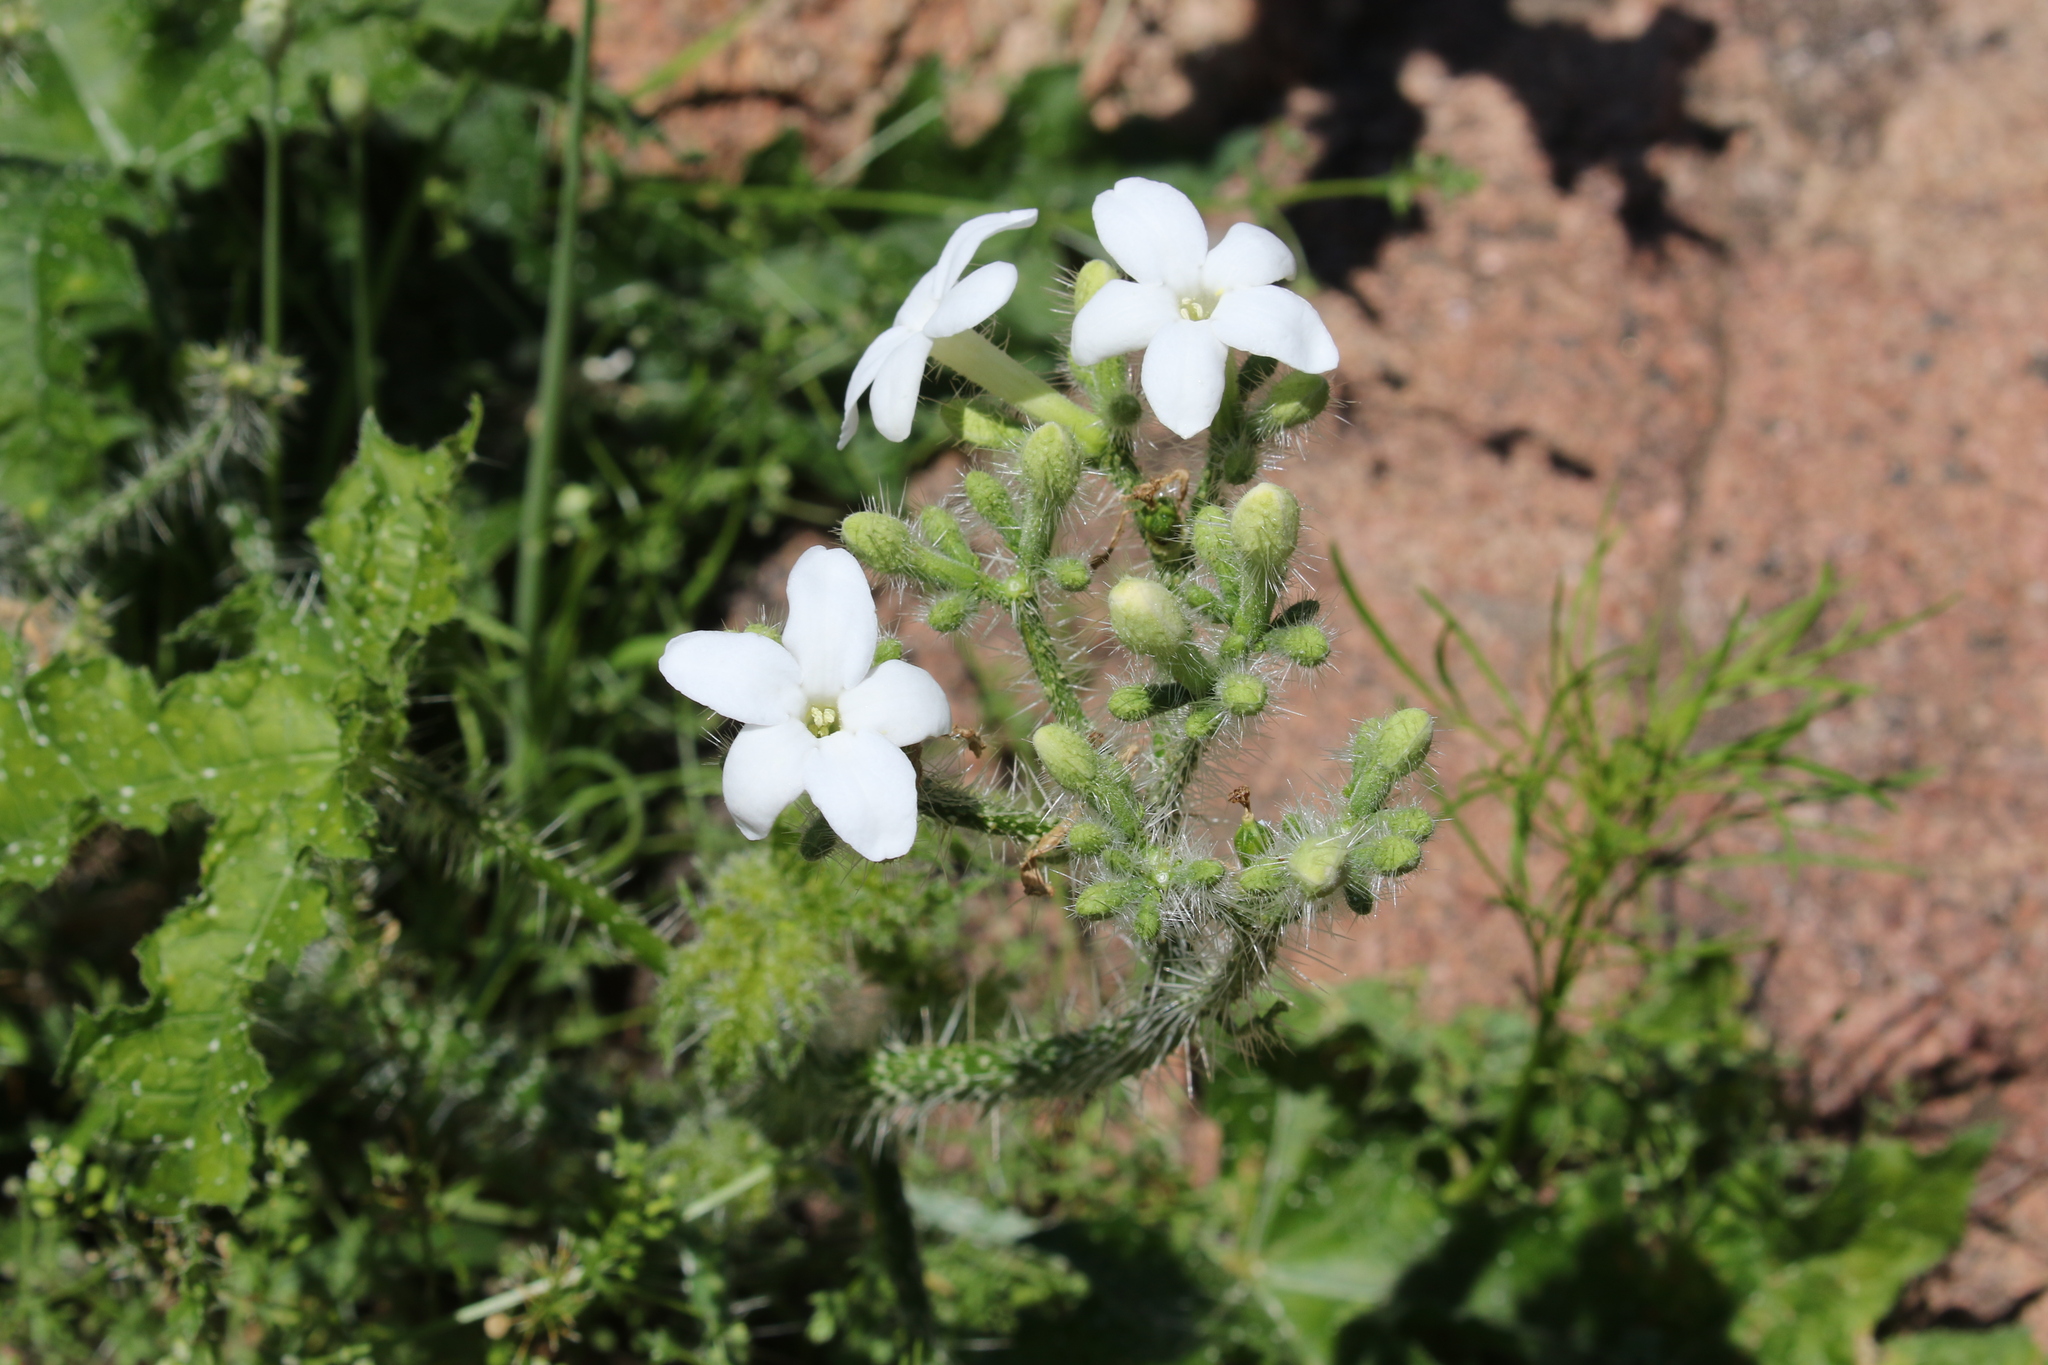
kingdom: Plantae
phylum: Tracheophyta
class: Magnoliopsida
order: Malpighiales
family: Euphorbiaceae
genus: Cnidoscolus
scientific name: Cnidoscolus texanus
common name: Texas bull-nettle
